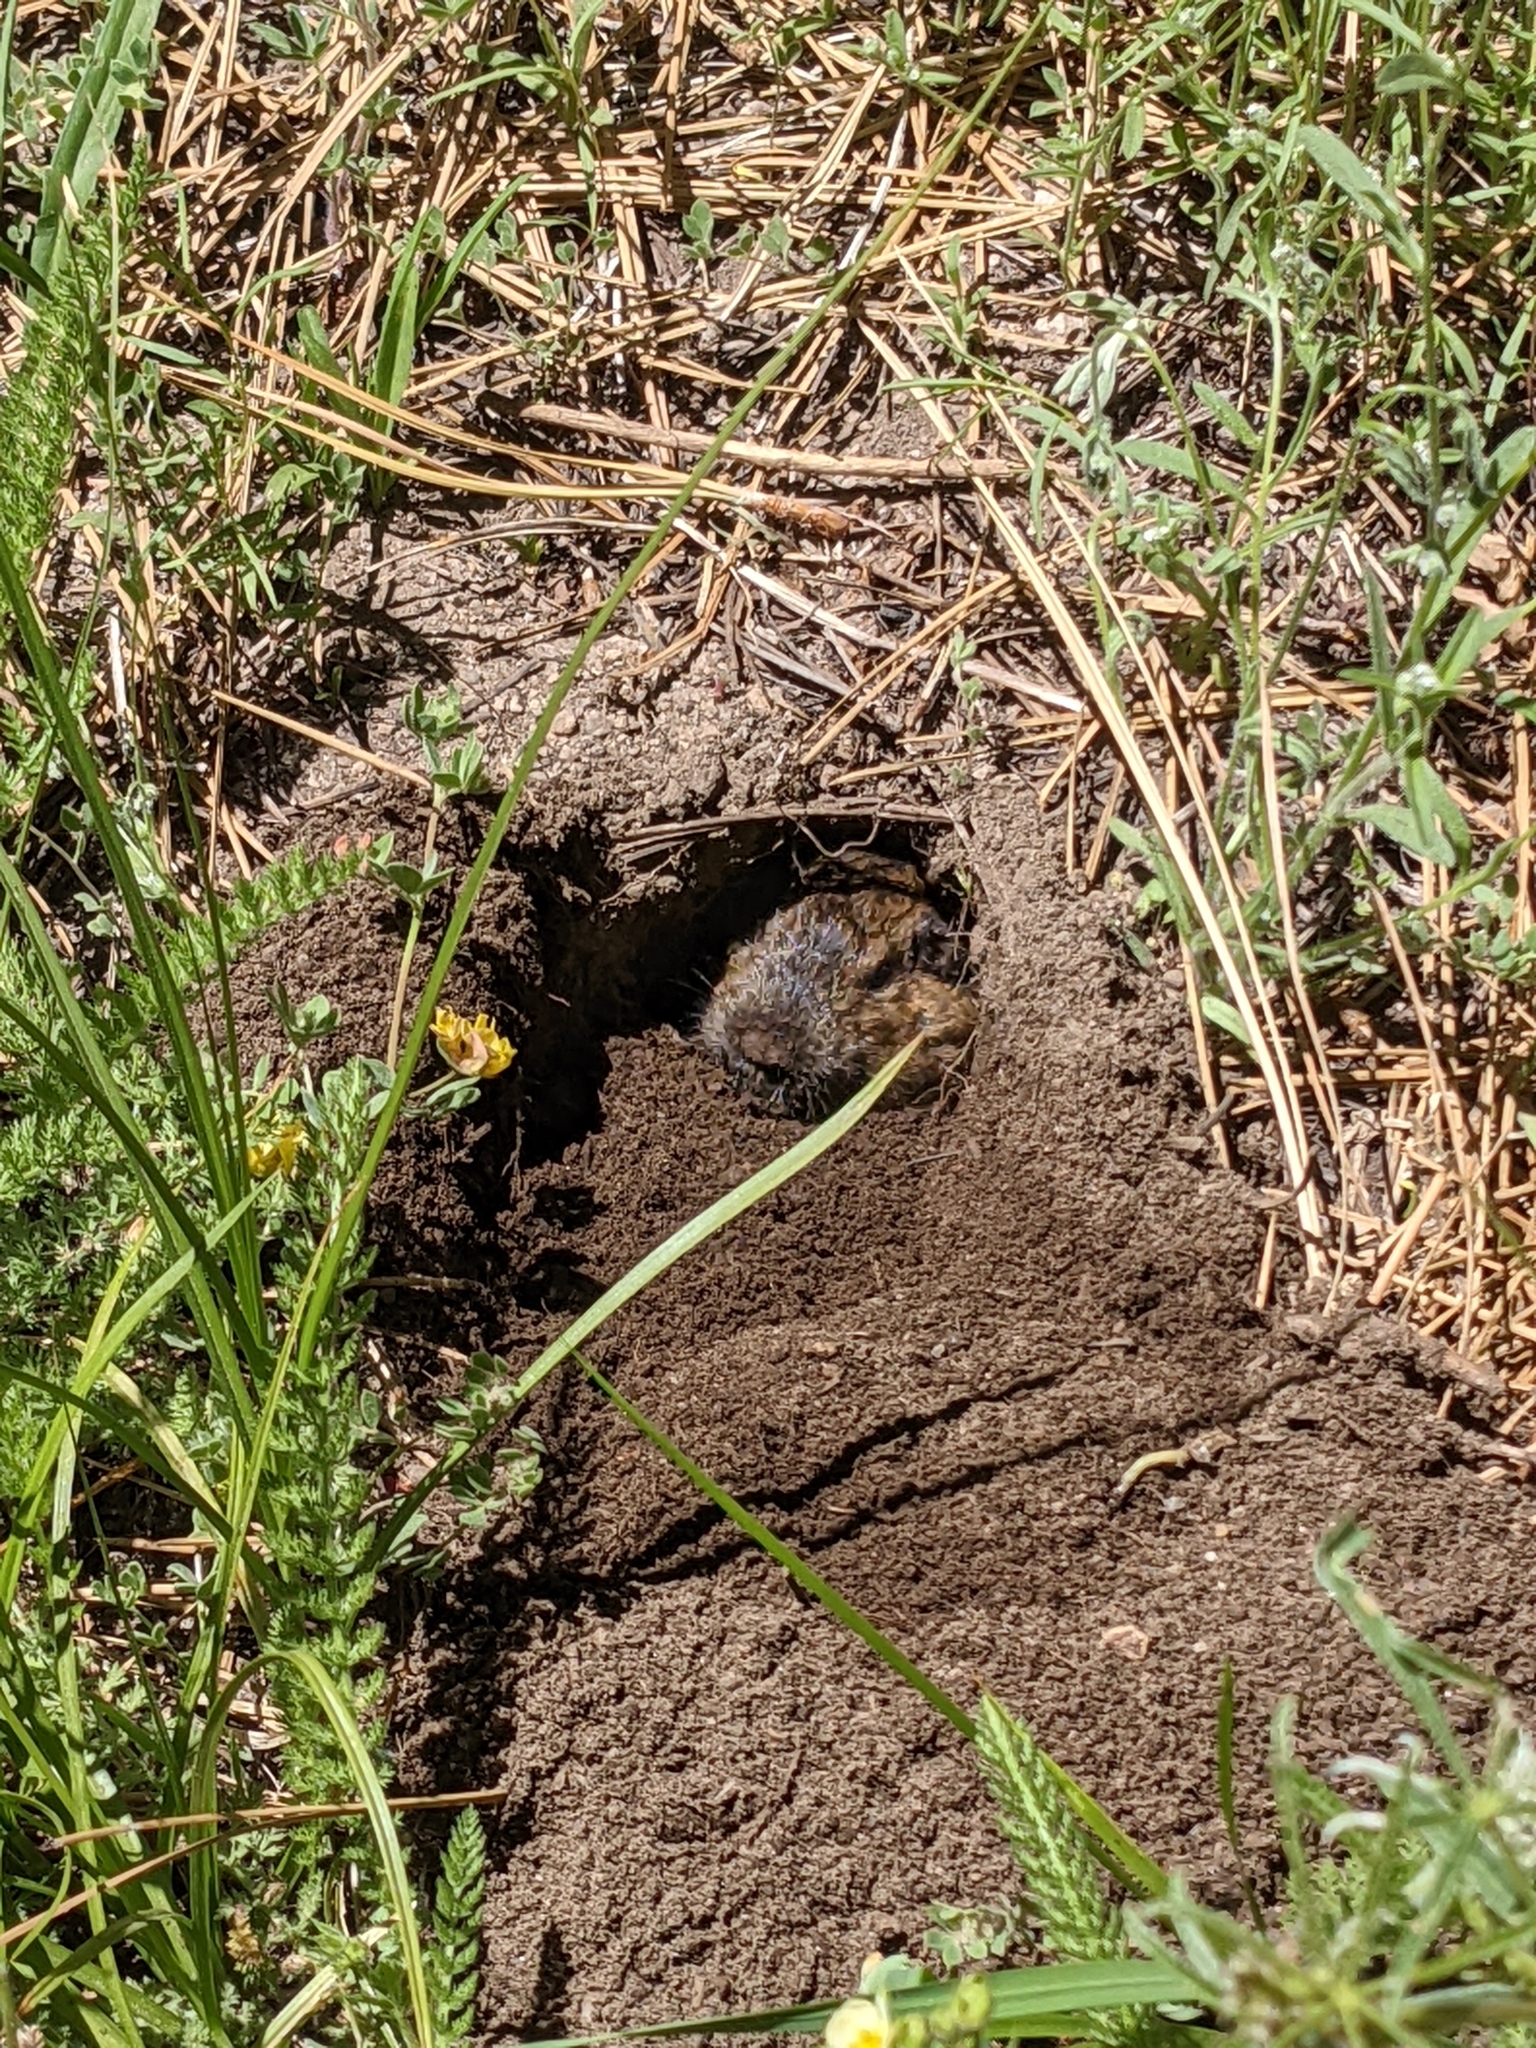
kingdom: Animalia
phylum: Chordata
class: Mammalia
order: Rodentia
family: Geomyidae
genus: Thomomys
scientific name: Thomomys bottae
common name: Botta's pocket gopher
